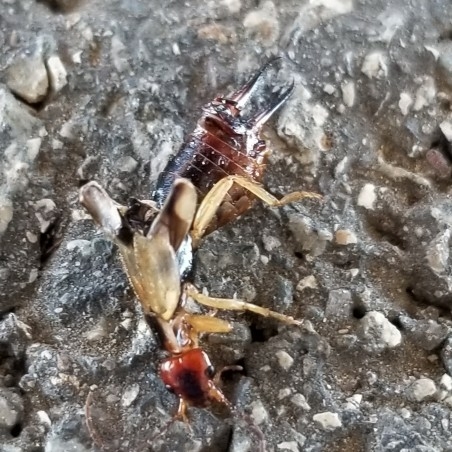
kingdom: Animalia
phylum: Arthropoda
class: Insecta
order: Dermaptera
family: Forficulidae
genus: Forficula
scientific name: Forficula
